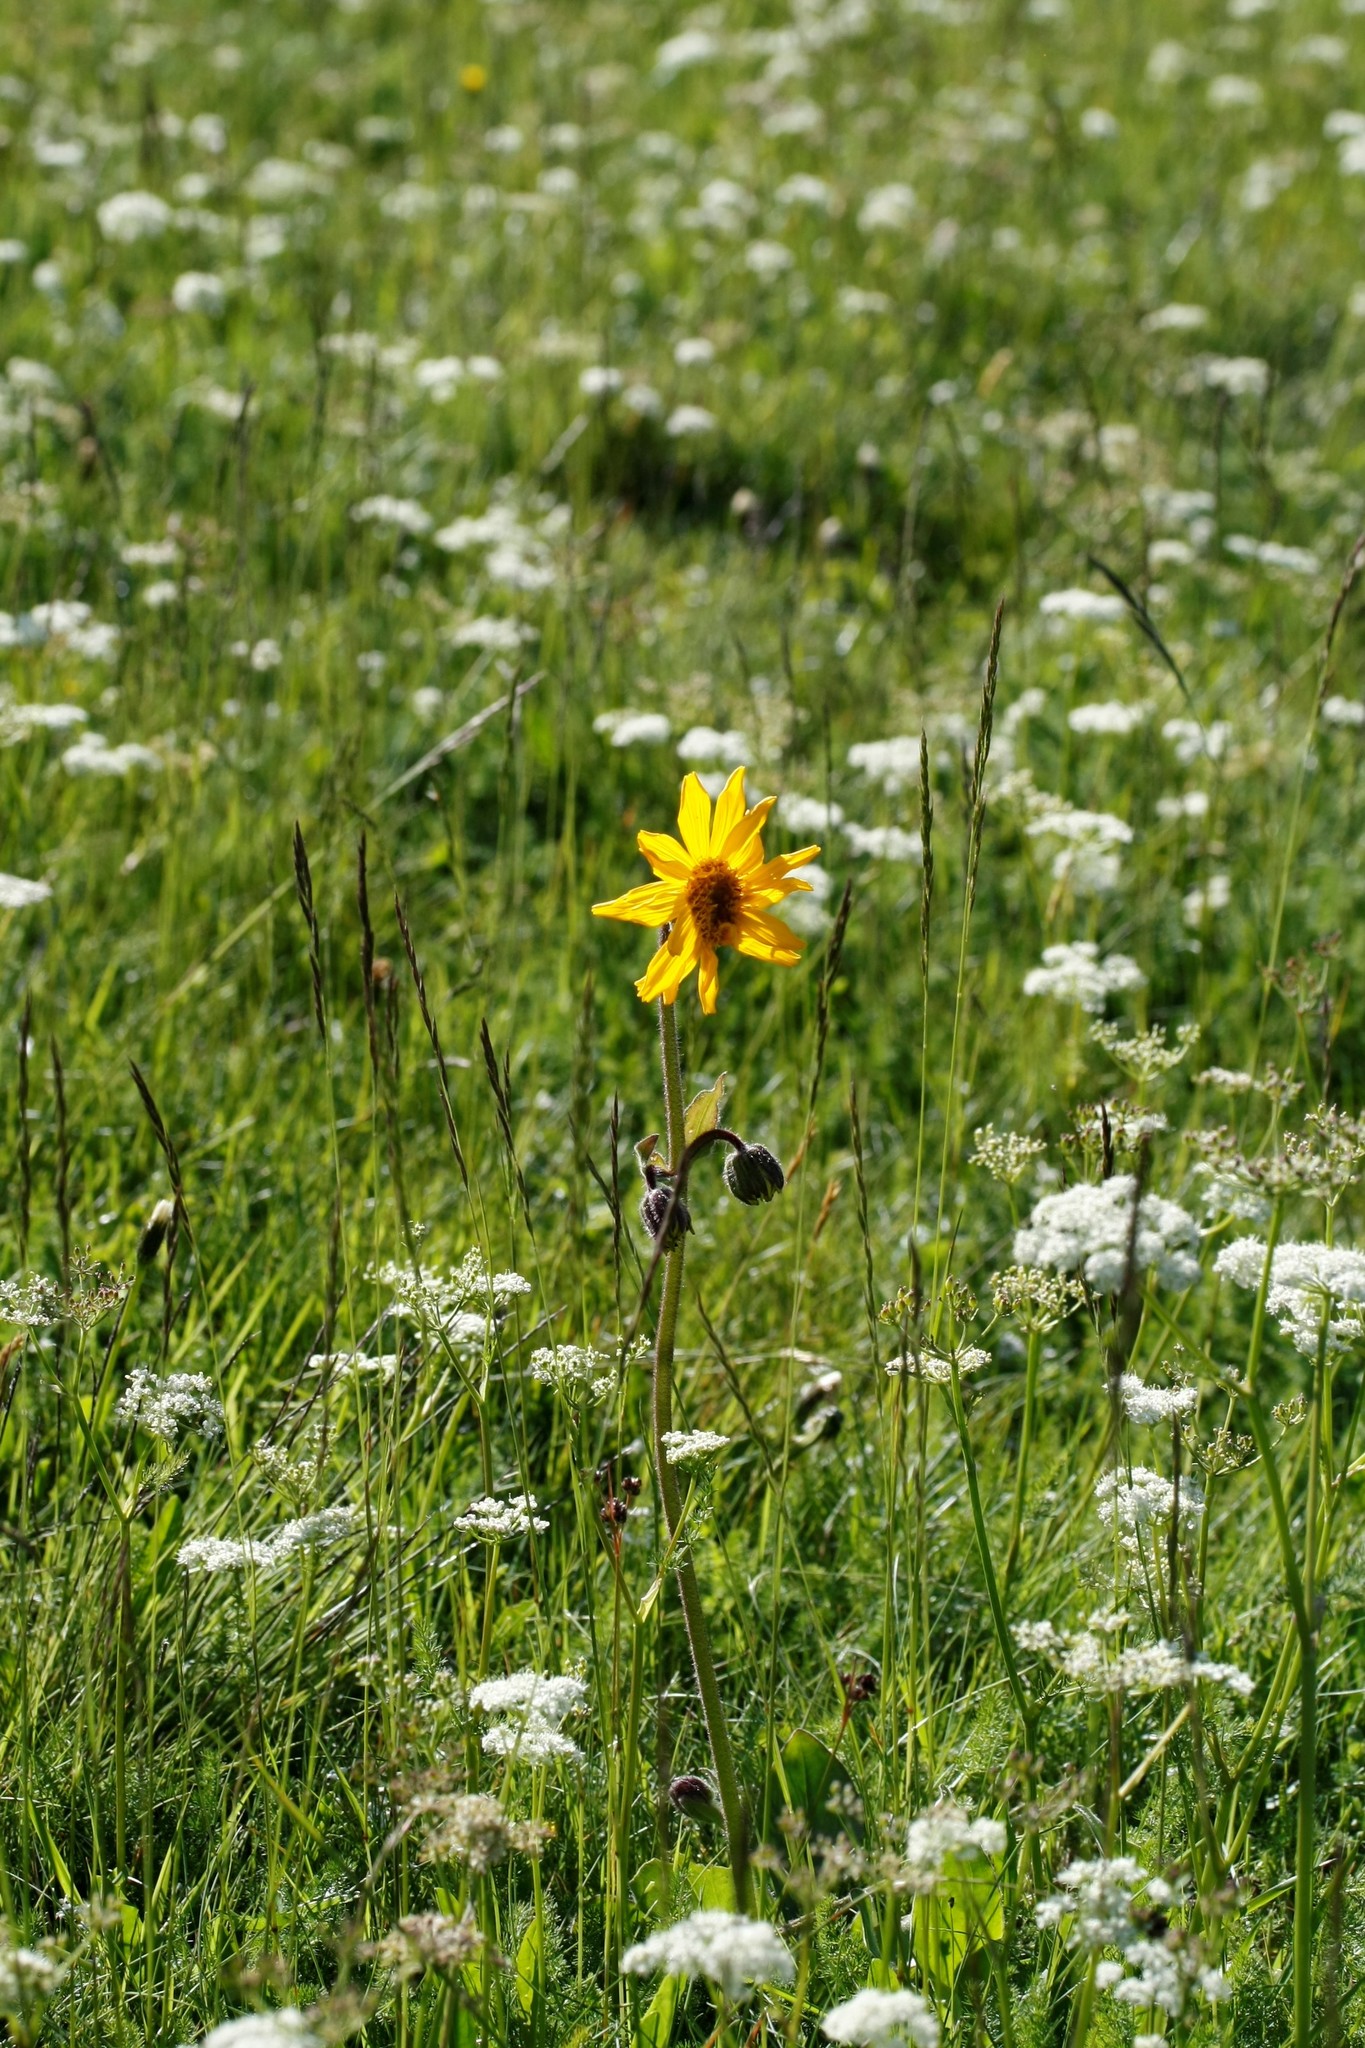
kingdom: Plantae
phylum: Tracheophyta
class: Magnoliopsida
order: Asterales
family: Asteraceae
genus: Arnica
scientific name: Arnica montana
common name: Leopard's bane
